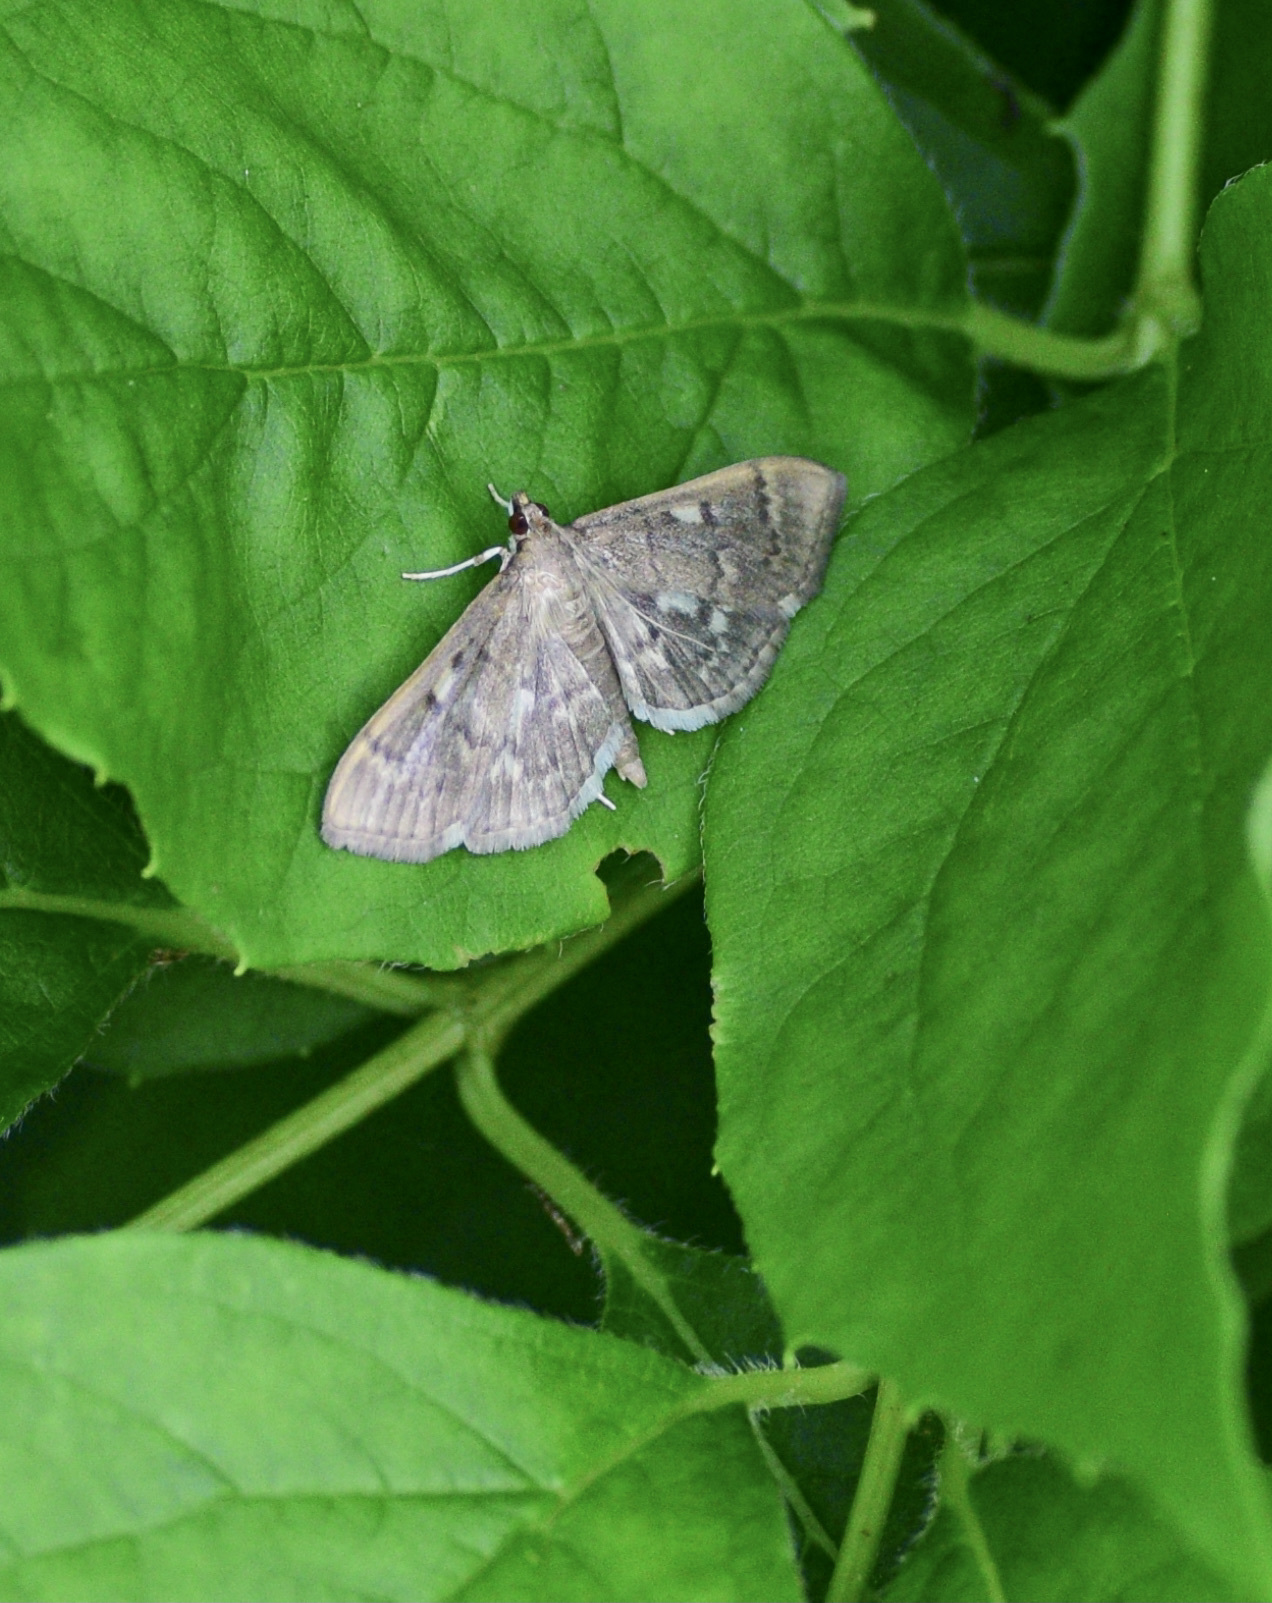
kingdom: Animalia
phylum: Arthropoda
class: Insecta
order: Lepidoptera
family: Crambidae
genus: Herpetogramma
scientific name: Herpetogramma aeglealis
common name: Serpentine webworm moth
